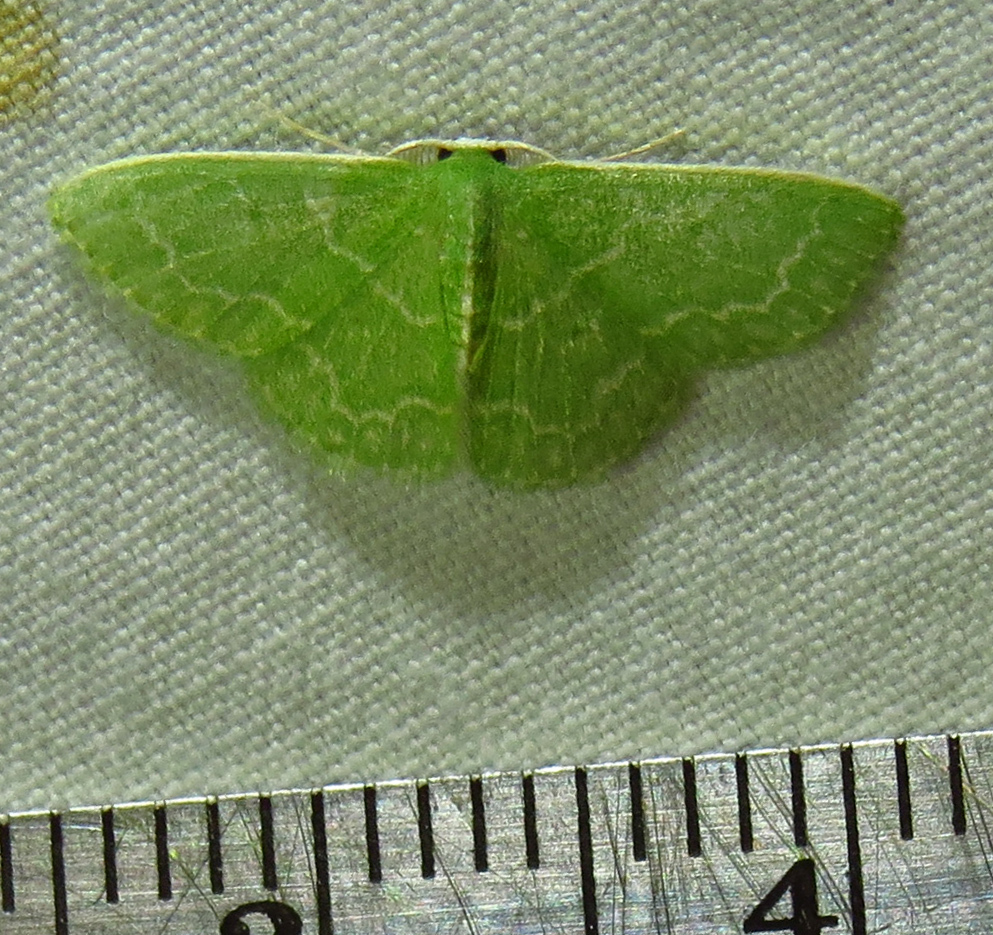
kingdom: Animalia
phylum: Arthropoda
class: Insecta
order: Lepidoptera
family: Geometridae
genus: Synchlora
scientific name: Synchlora frondaria
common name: Southern emerald
